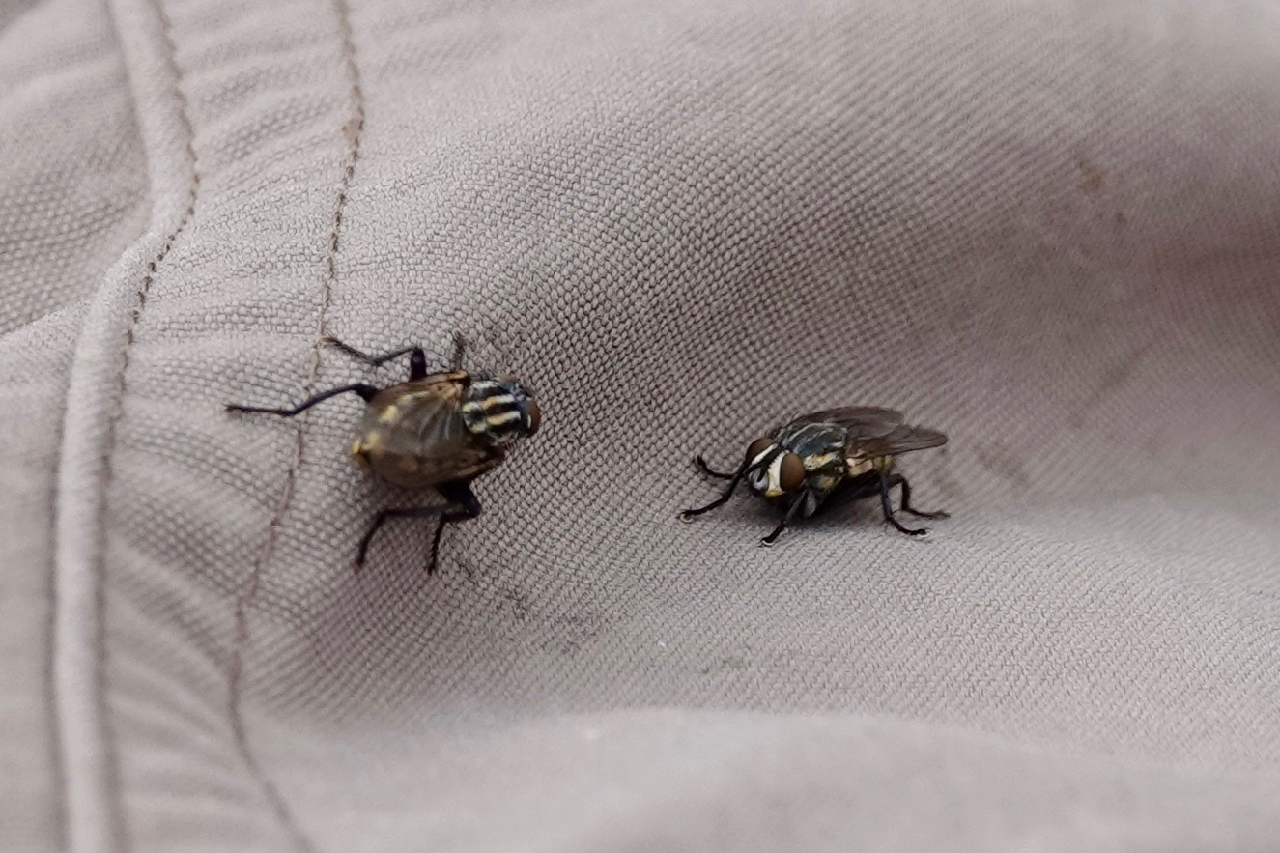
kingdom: Animalia
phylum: Arthropoda
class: Insecta
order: Diptera
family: Sarcophagidae
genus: Oxysarcodexia
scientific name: Oxysarcodexia varia
